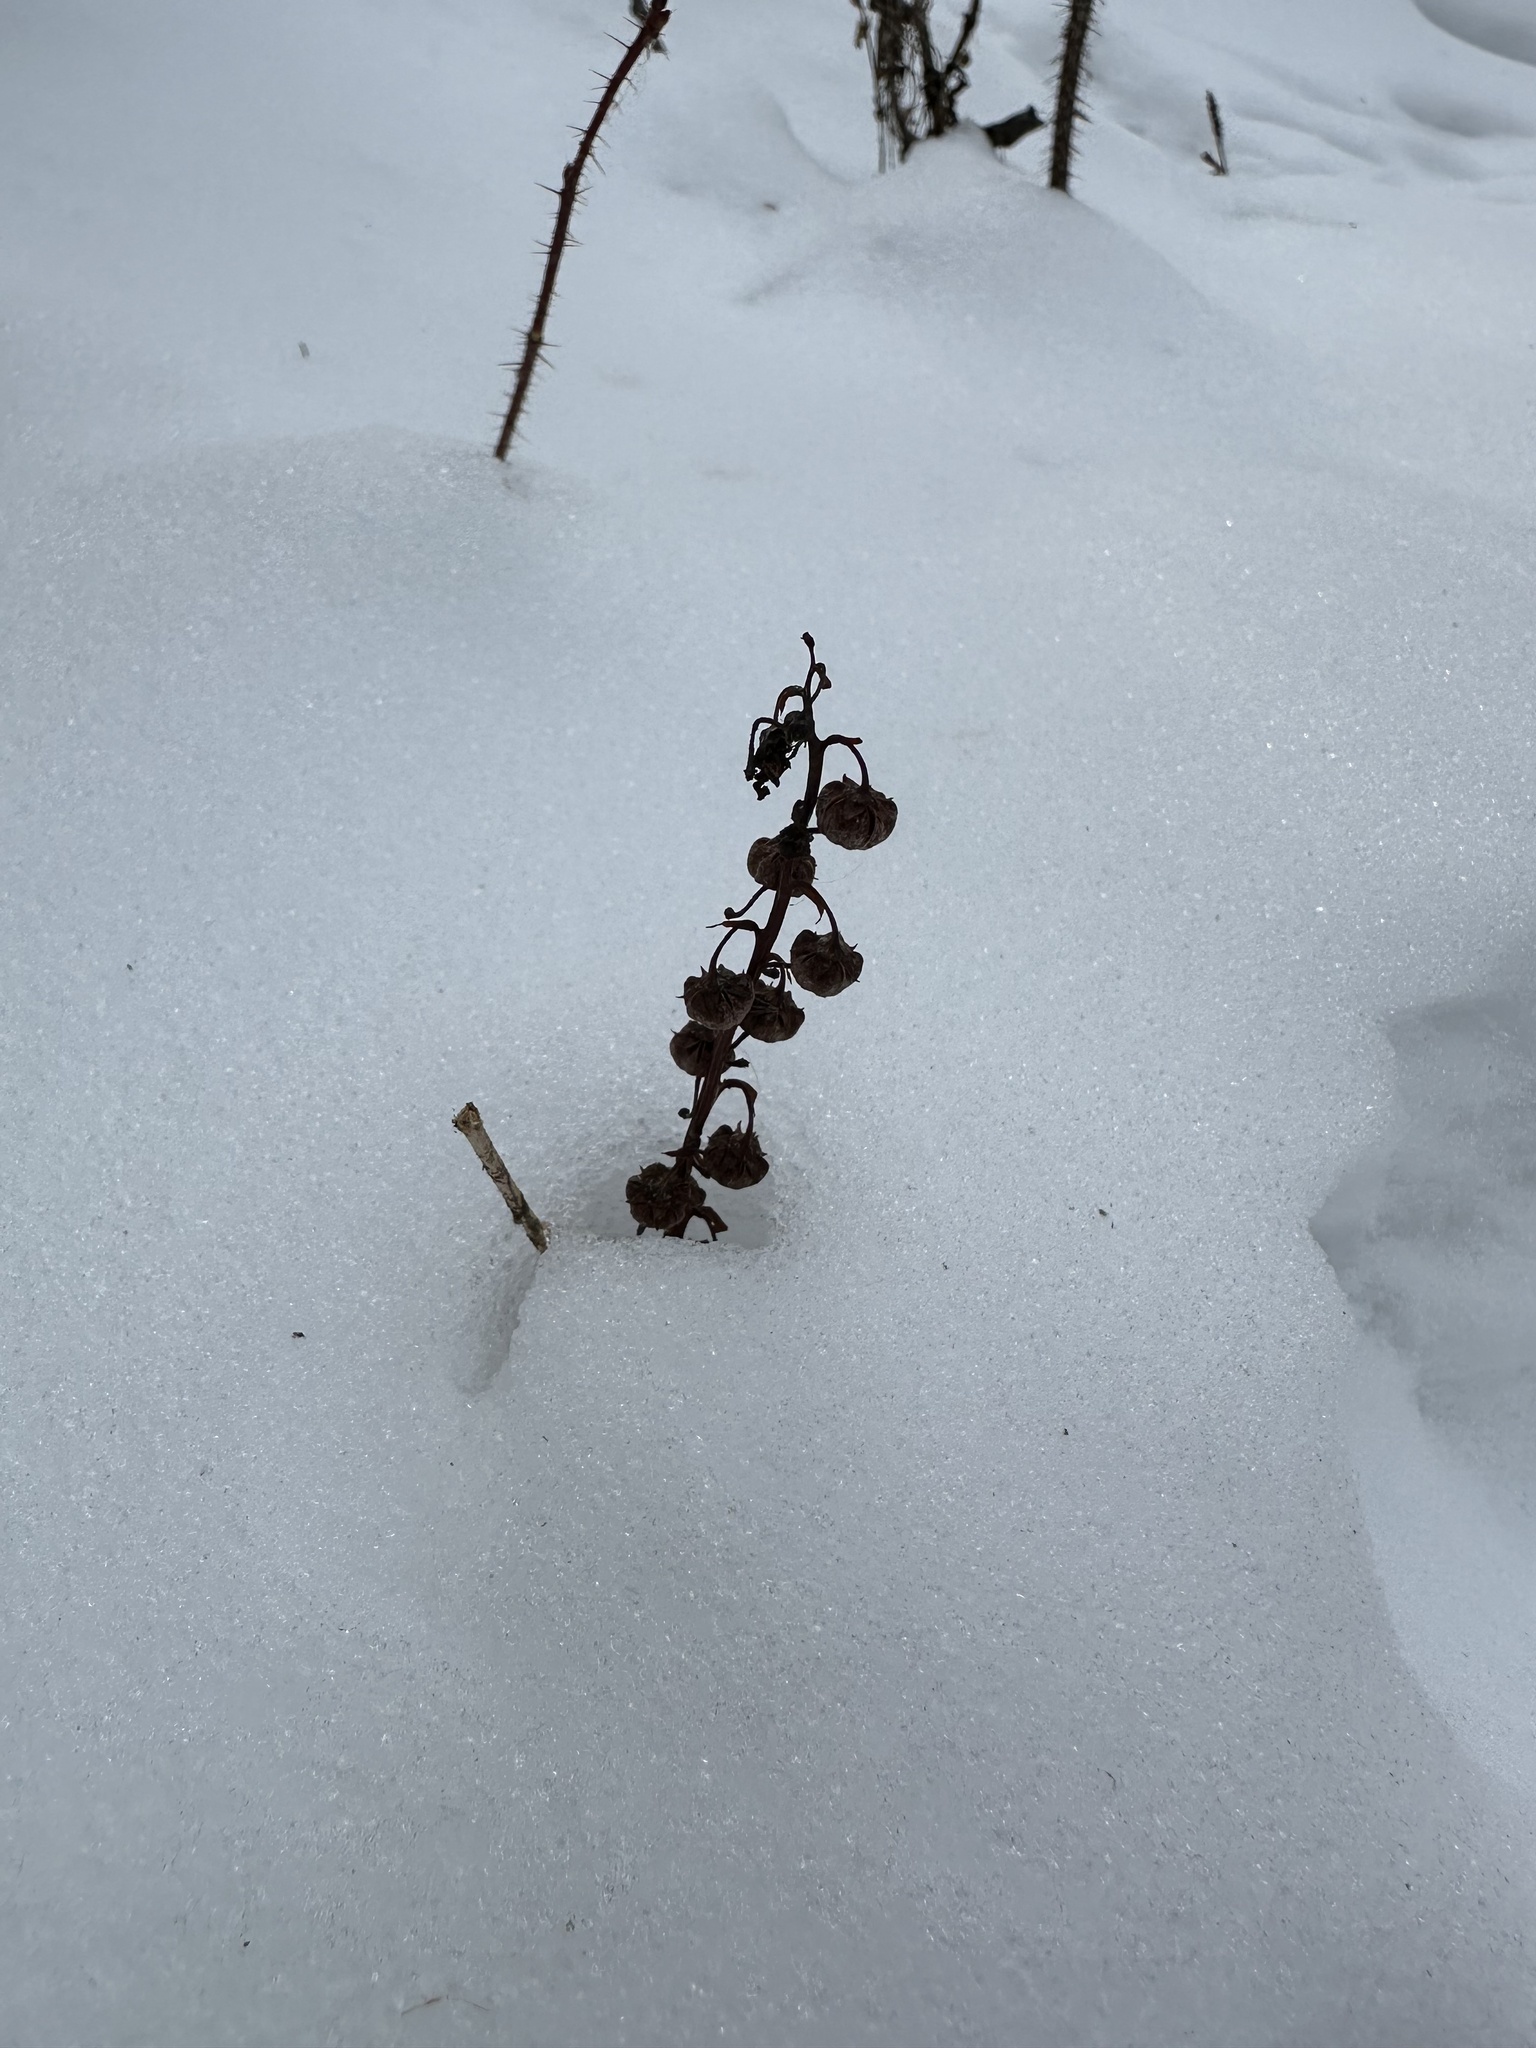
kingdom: Plantae
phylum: Tracheophyta
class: Magnoliopsida
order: Ericales
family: Ericaceae
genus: Pyrola
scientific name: Pyrola asarifolia
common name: Bog wintergreen
